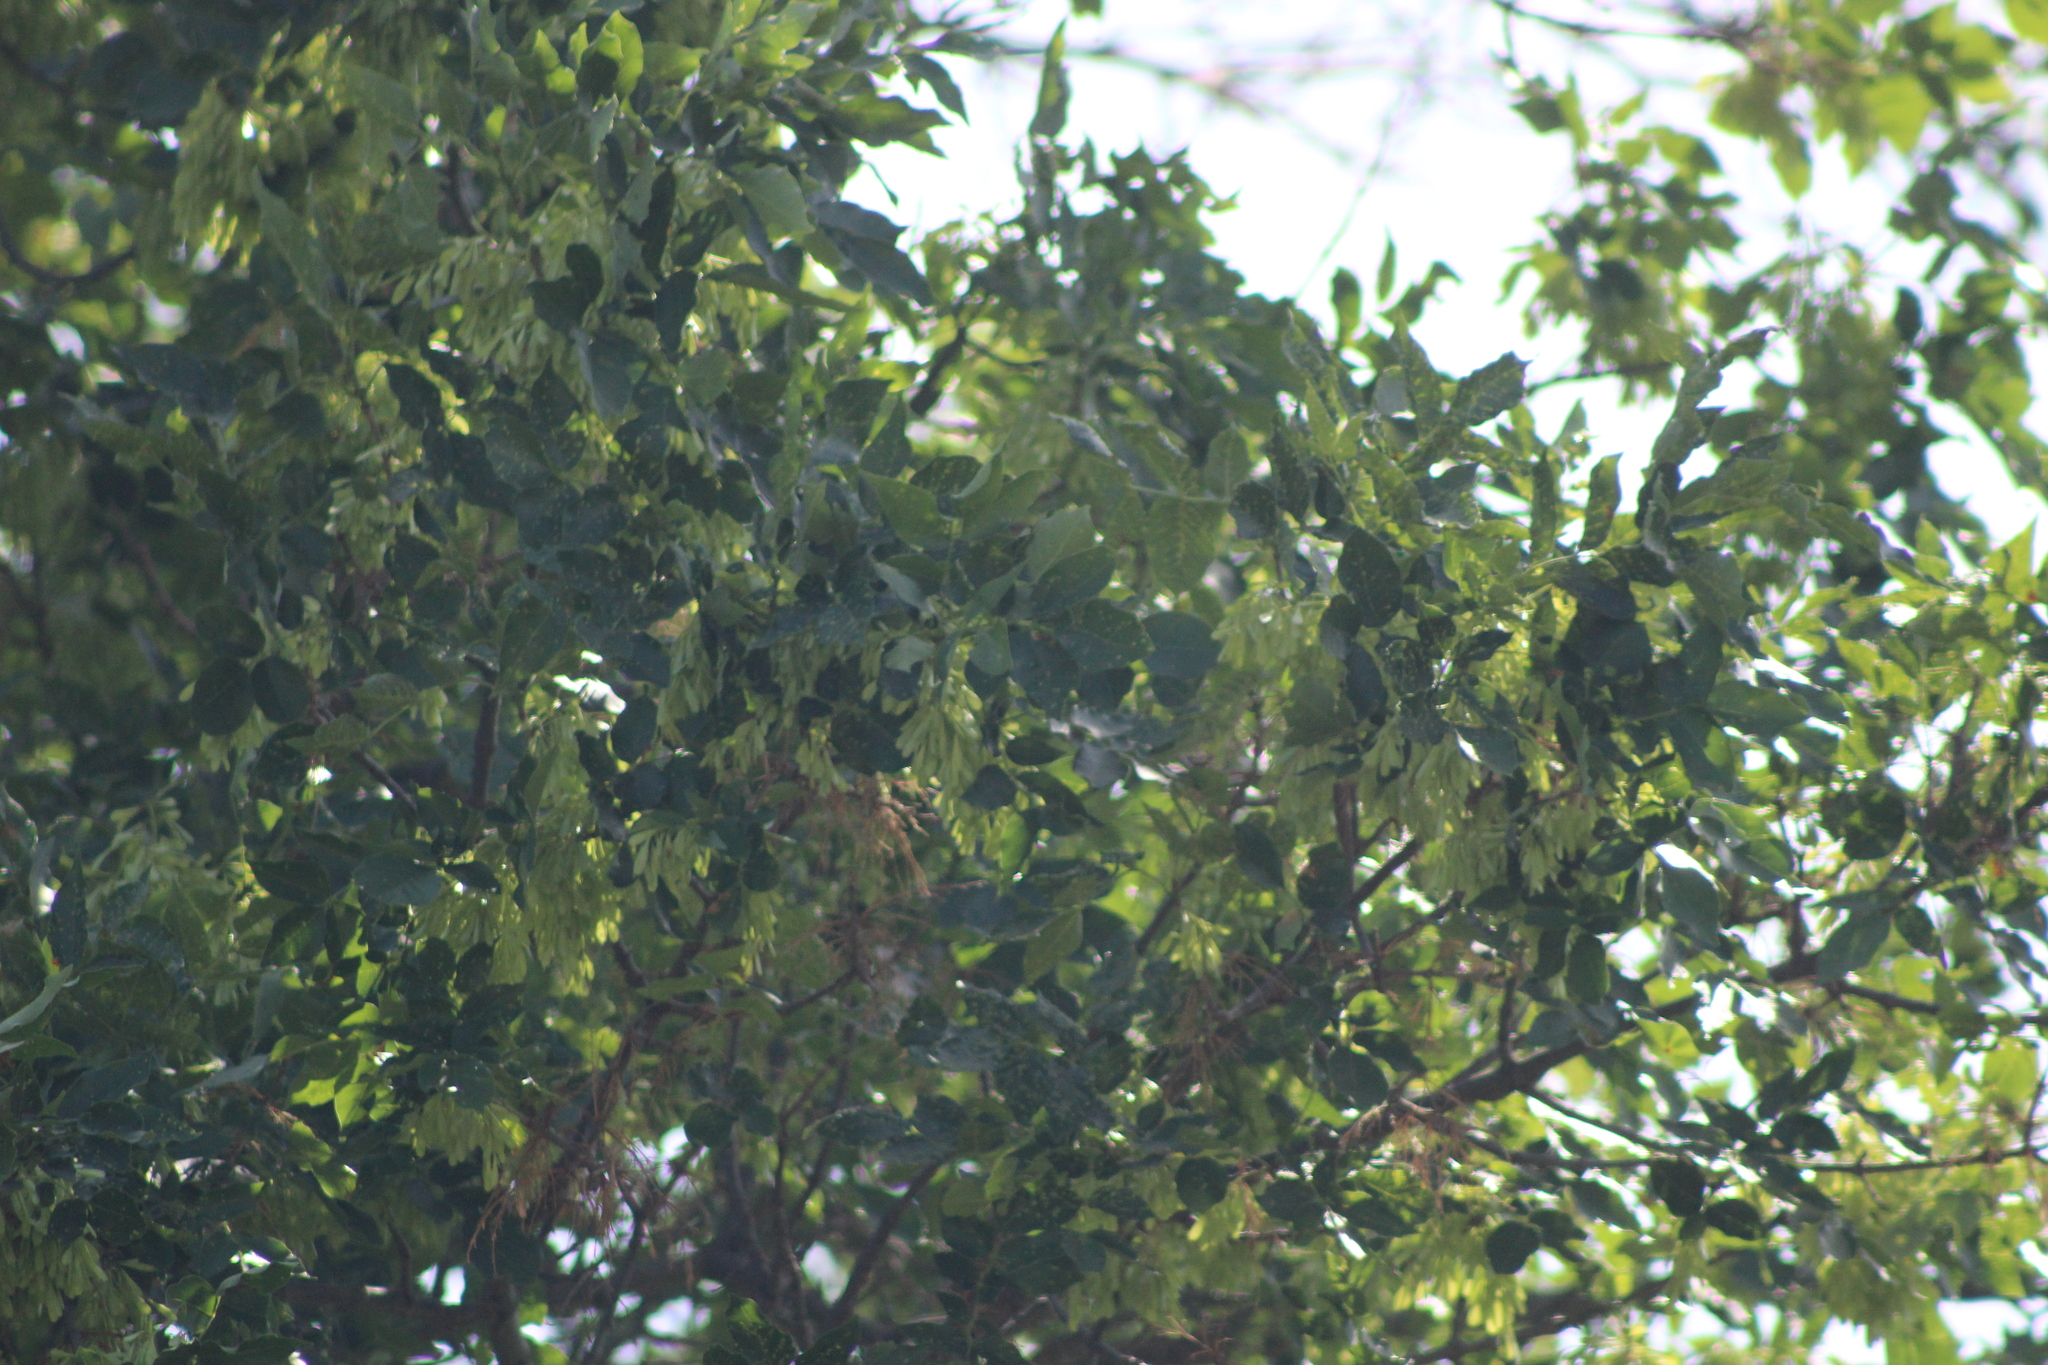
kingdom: Plantae
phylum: Tracheophyta
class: Magnoliopsida
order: Sapindales
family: Sapindaceae
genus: Acer
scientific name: Acer negundo
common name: Ashleaf maple
